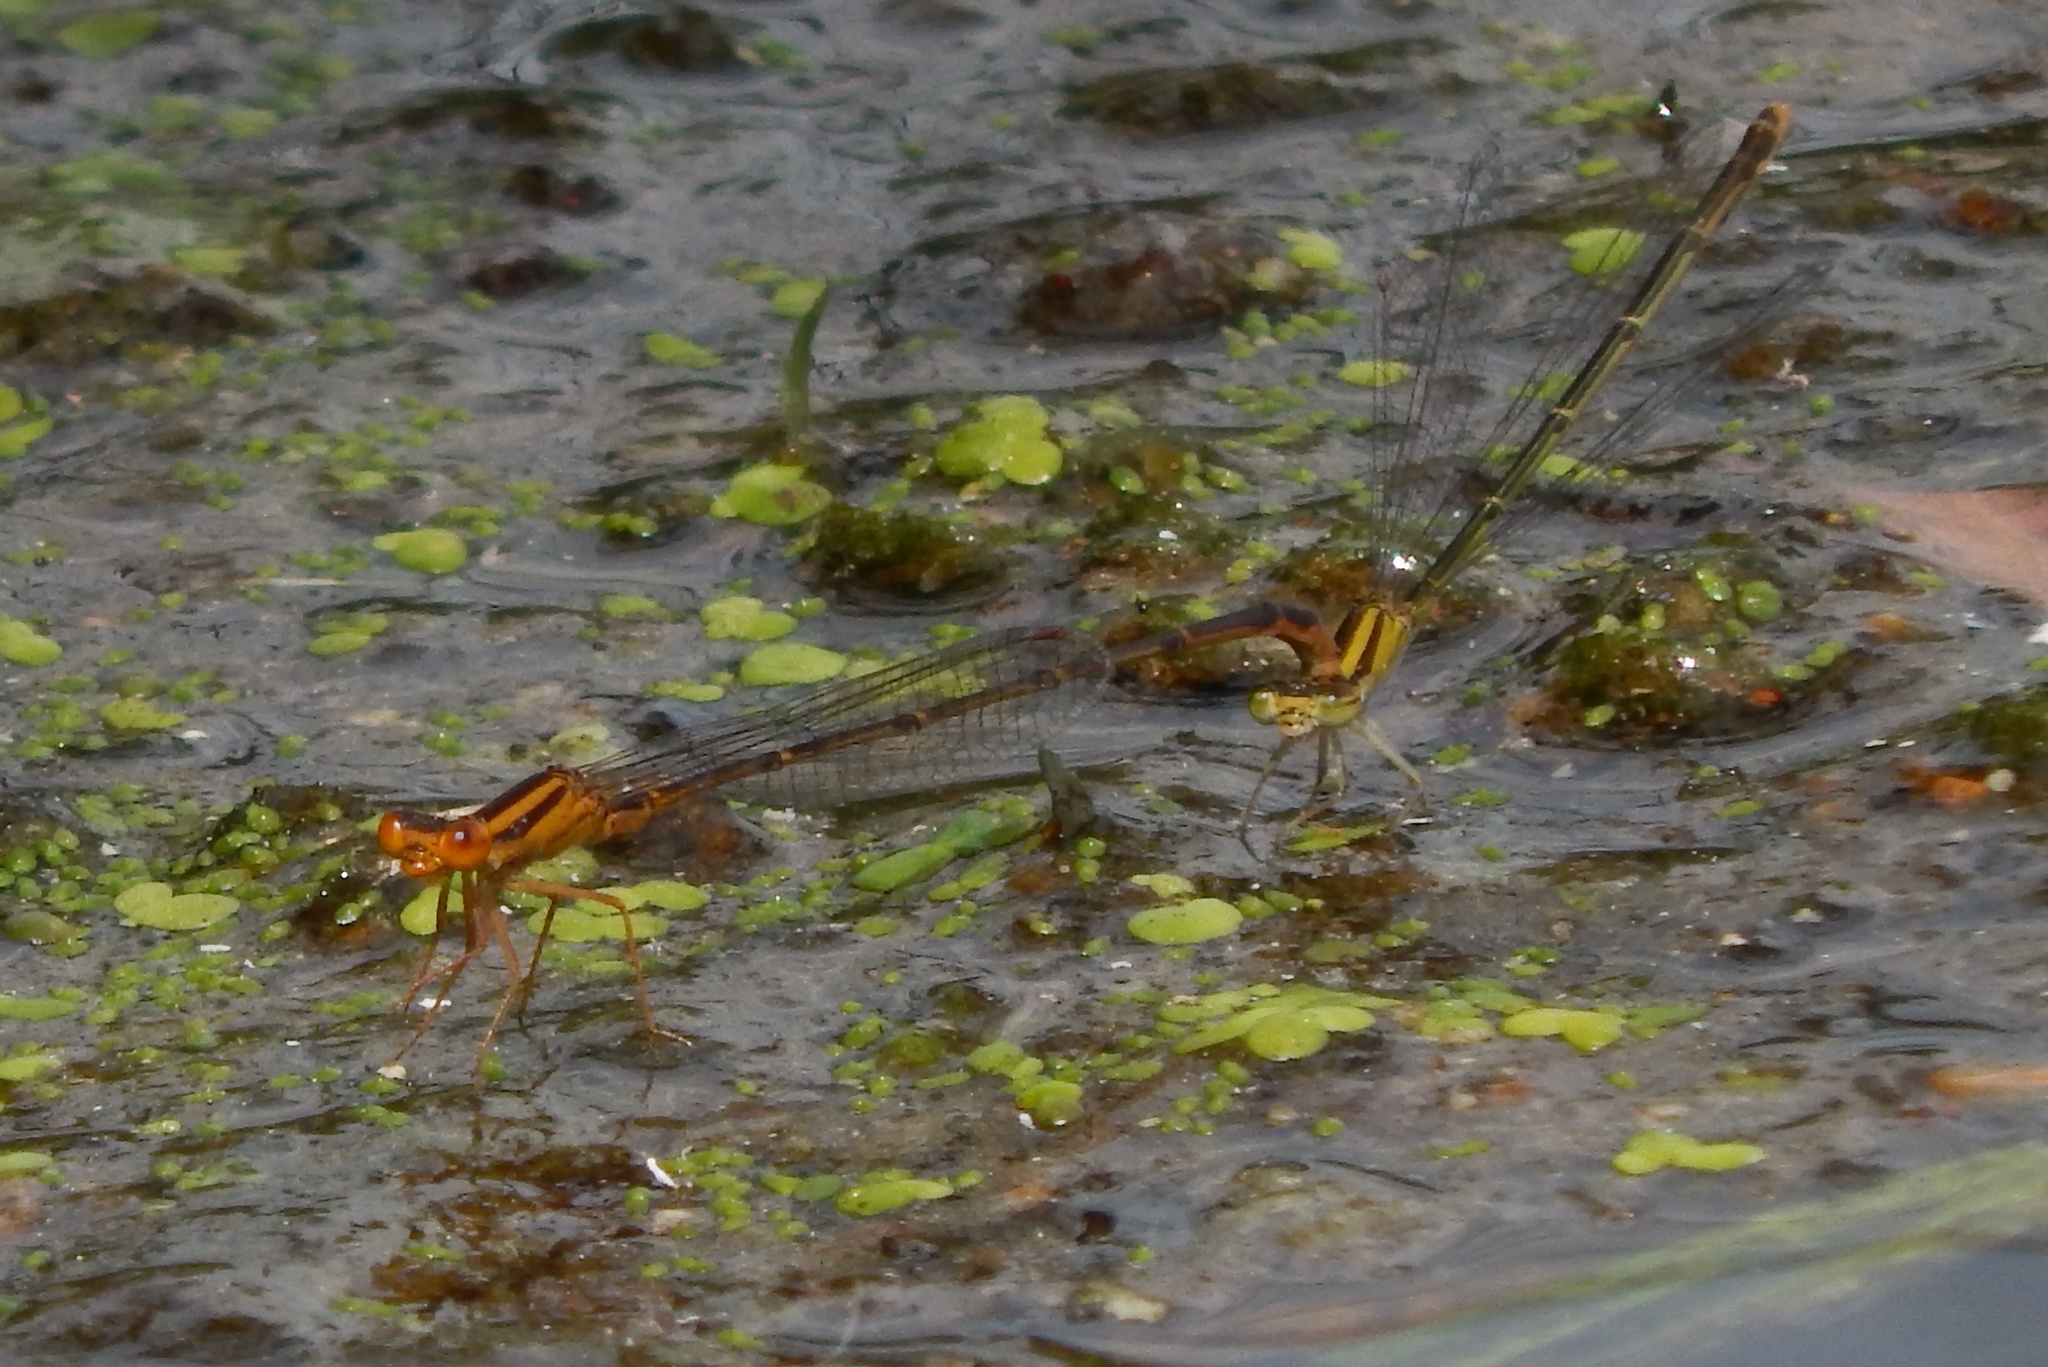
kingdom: Animalia
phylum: Arthropoda
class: Insecta
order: Odonata
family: Coenagrionidae
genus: Enallagma
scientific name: Enallagma signatum
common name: Orange bluet
